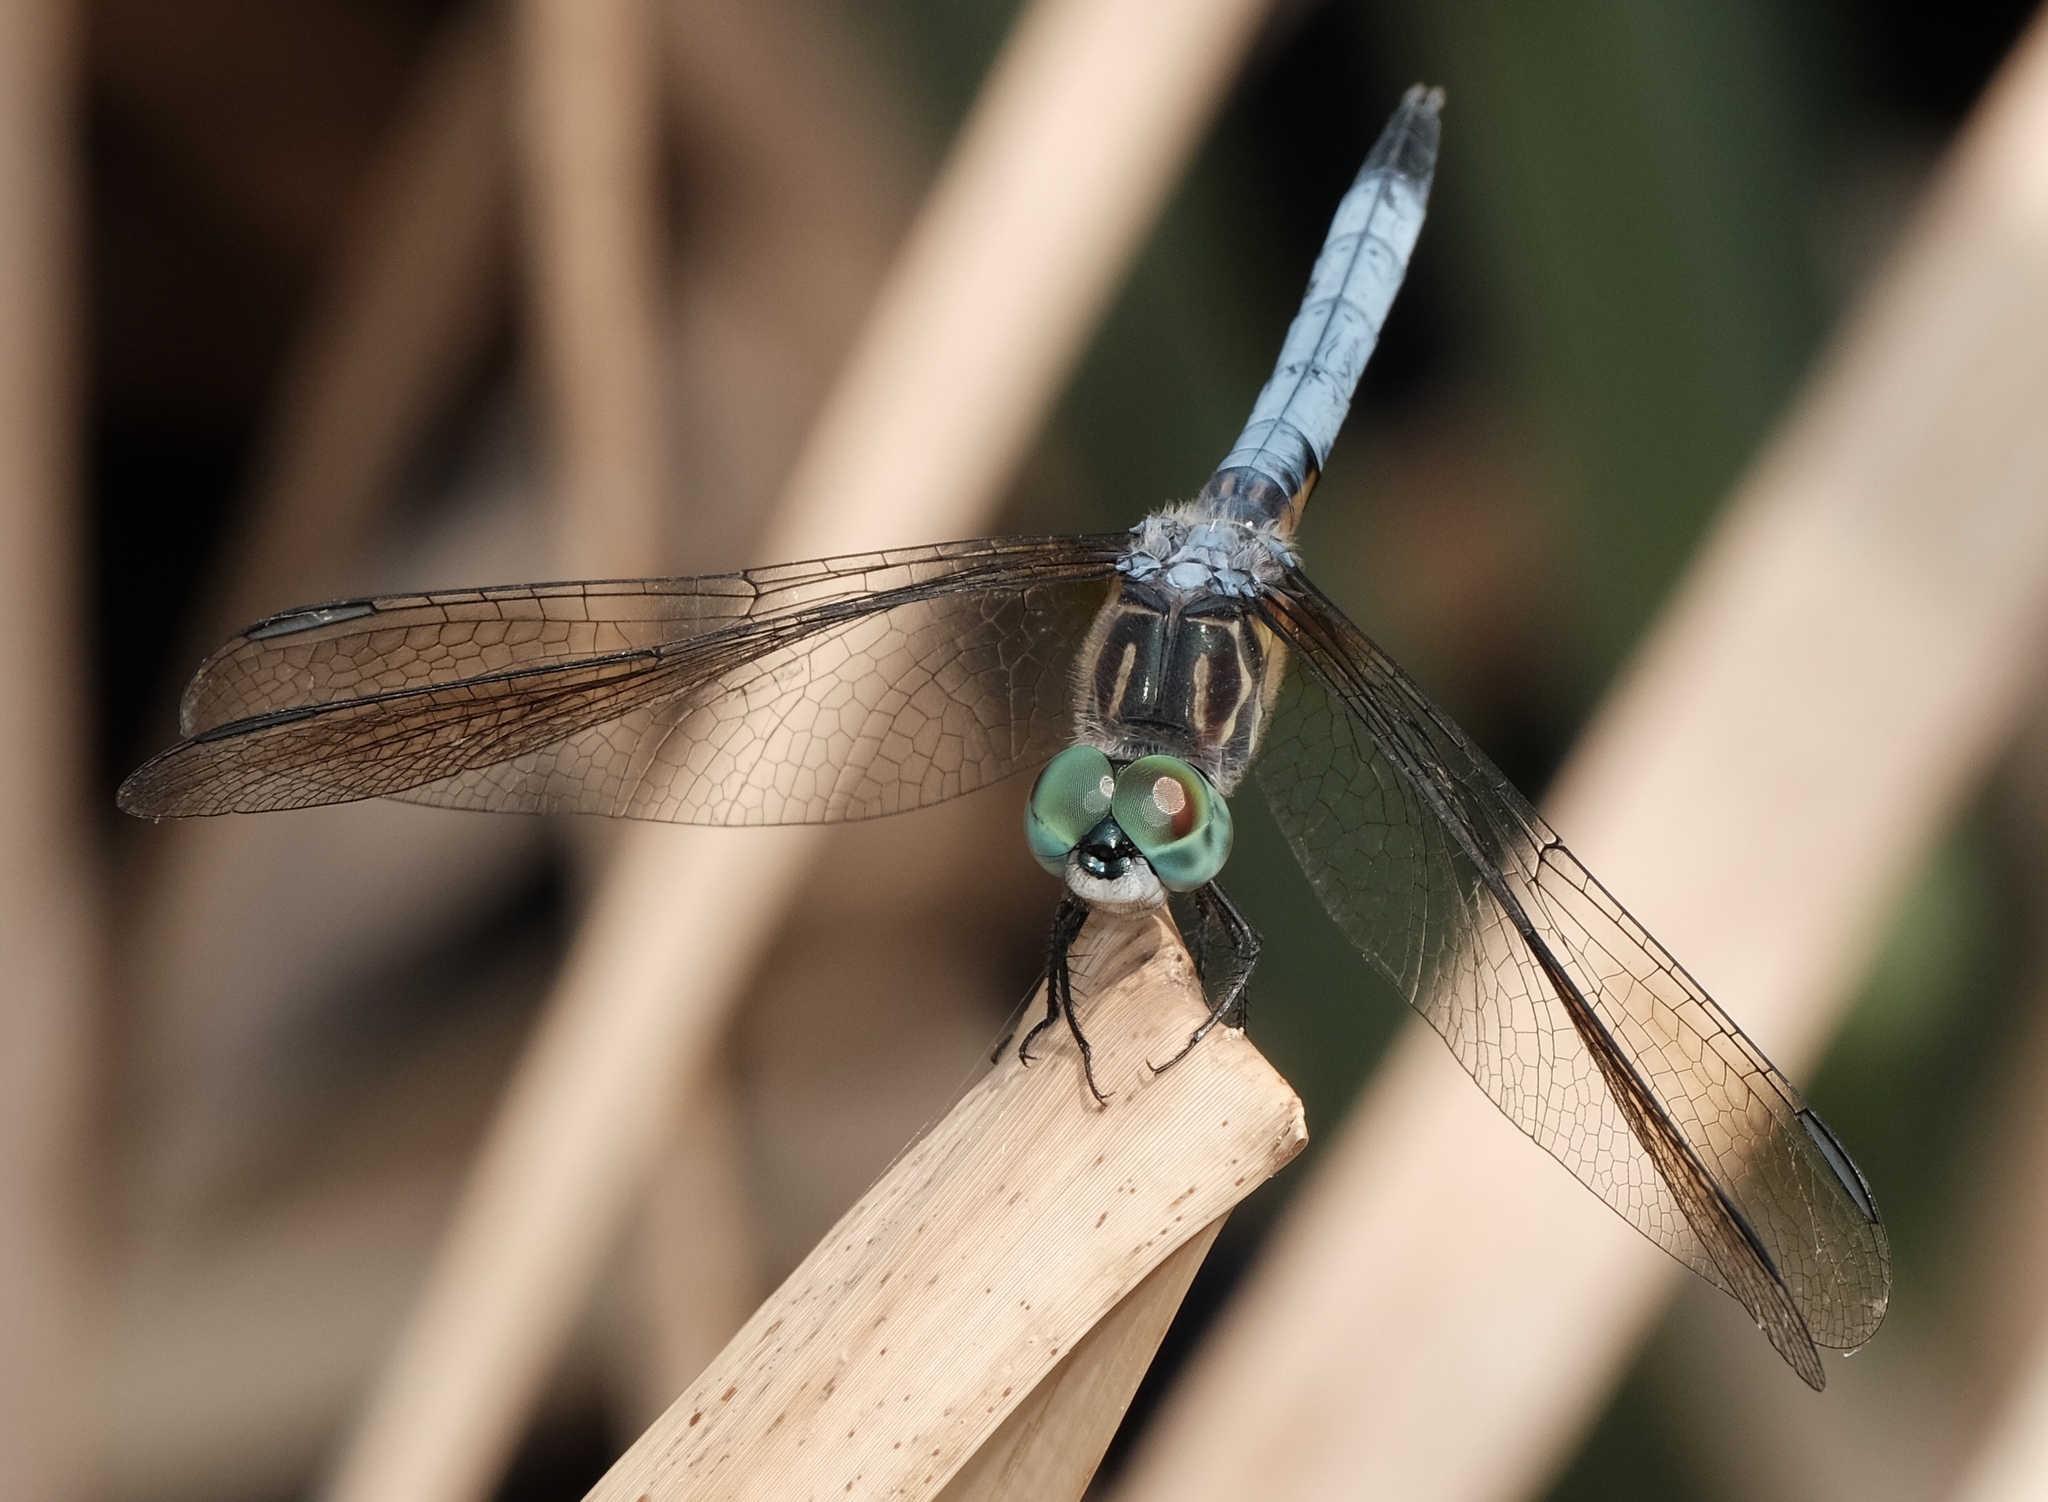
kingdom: Animalia
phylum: Arthropoda
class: Insecta
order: Odonata
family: Libellulidae
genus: Pachydiplax
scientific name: Pachydiplax longipennis
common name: Blue dasher
